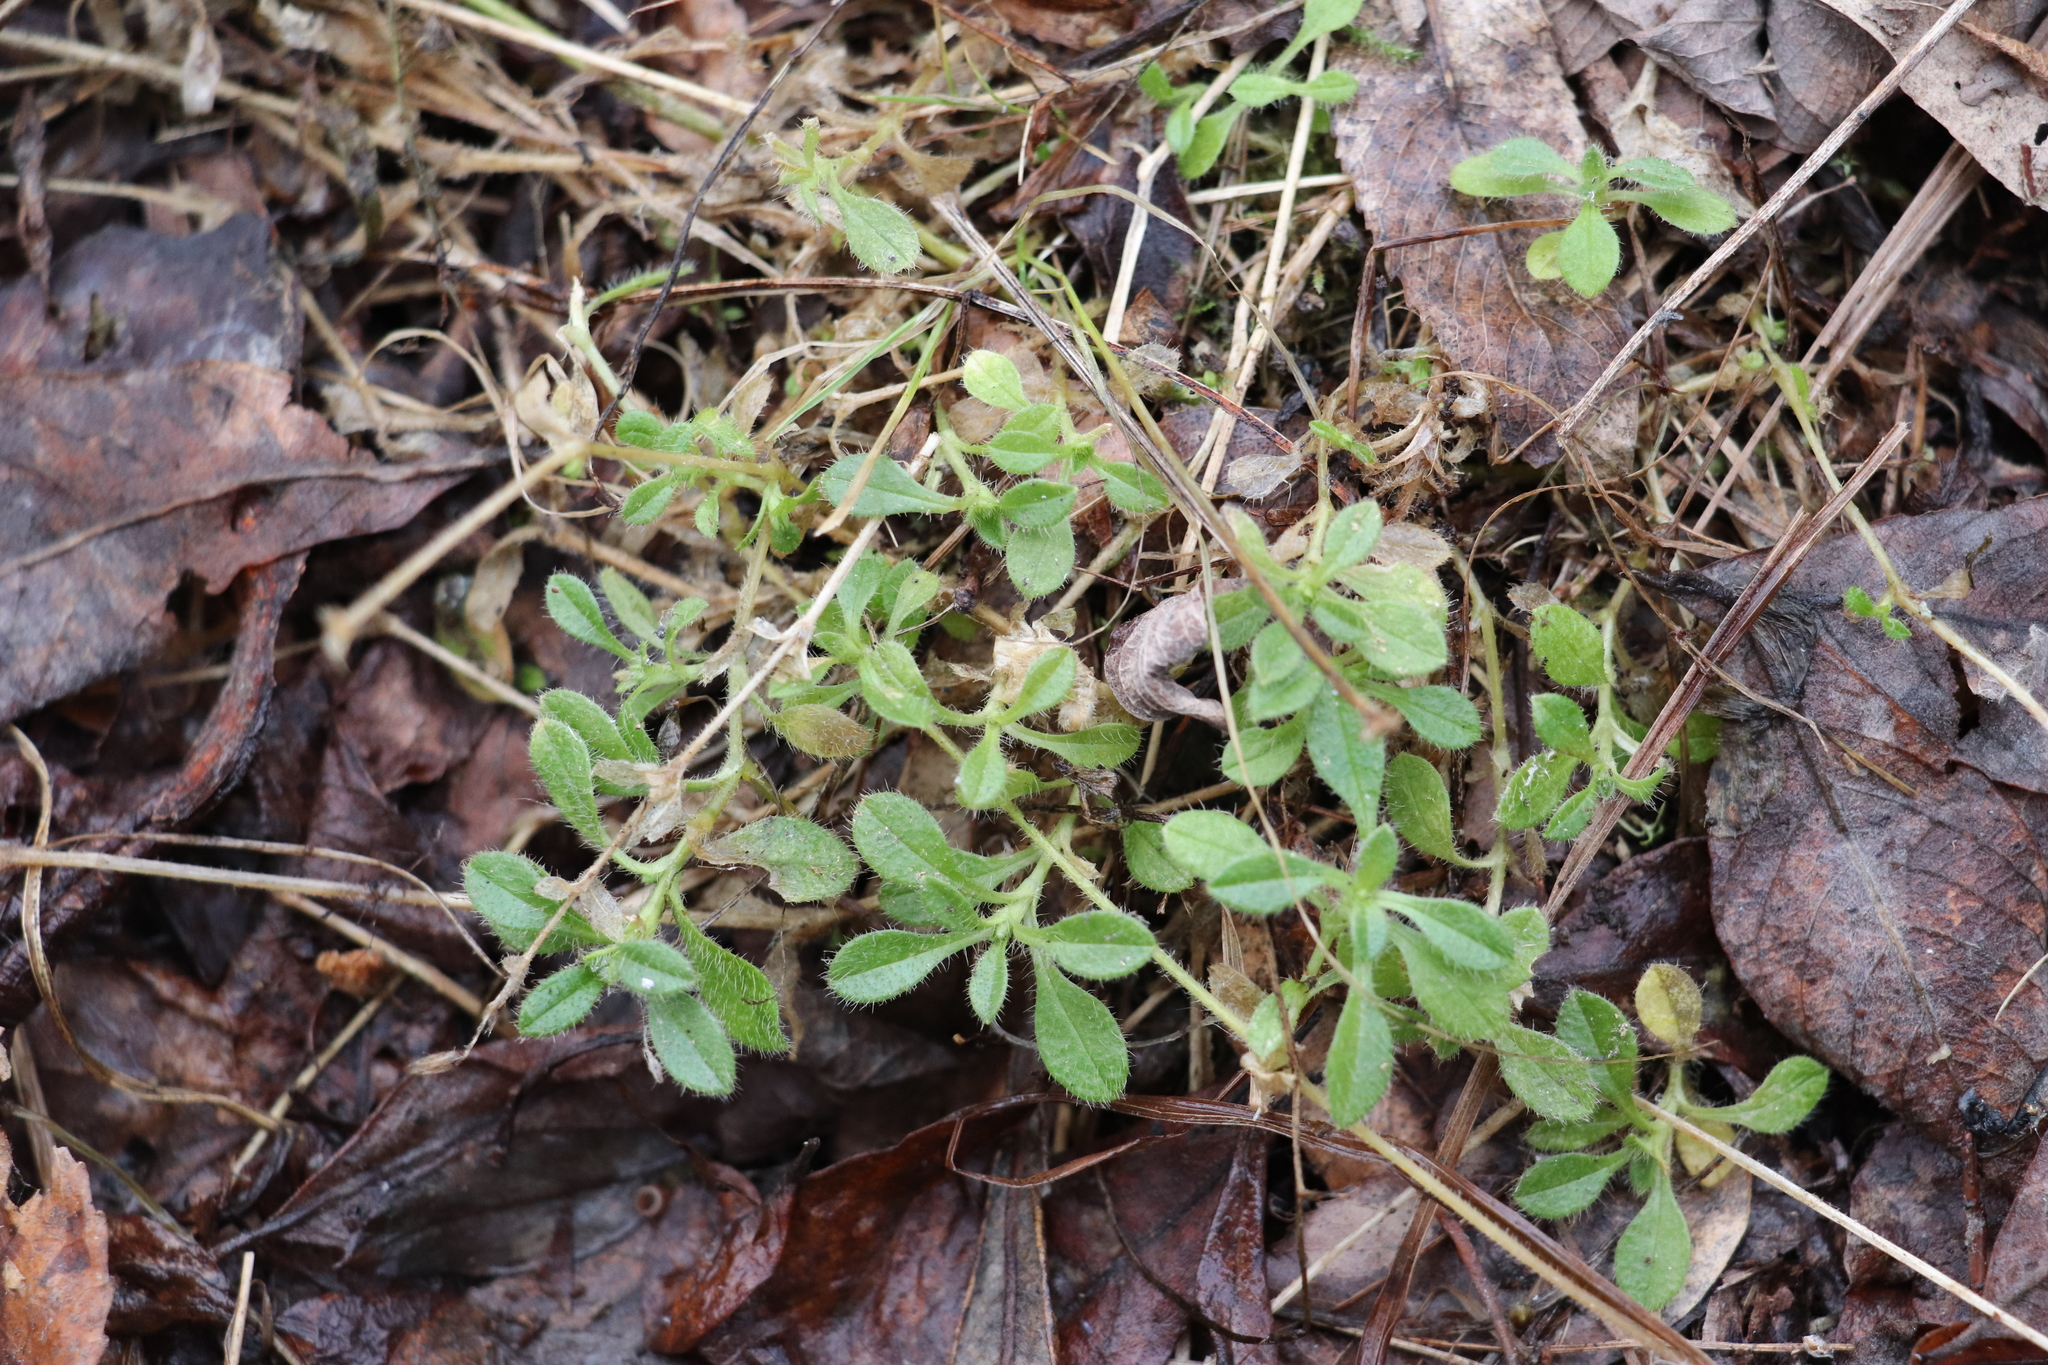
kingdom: Plantae
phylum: Tracheophyta
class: Magnoliopsida
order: Caryophyllales
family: Caryophyllaceae
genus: Cerastium
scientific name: Cerastium holosteoides
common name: Big chickweed
